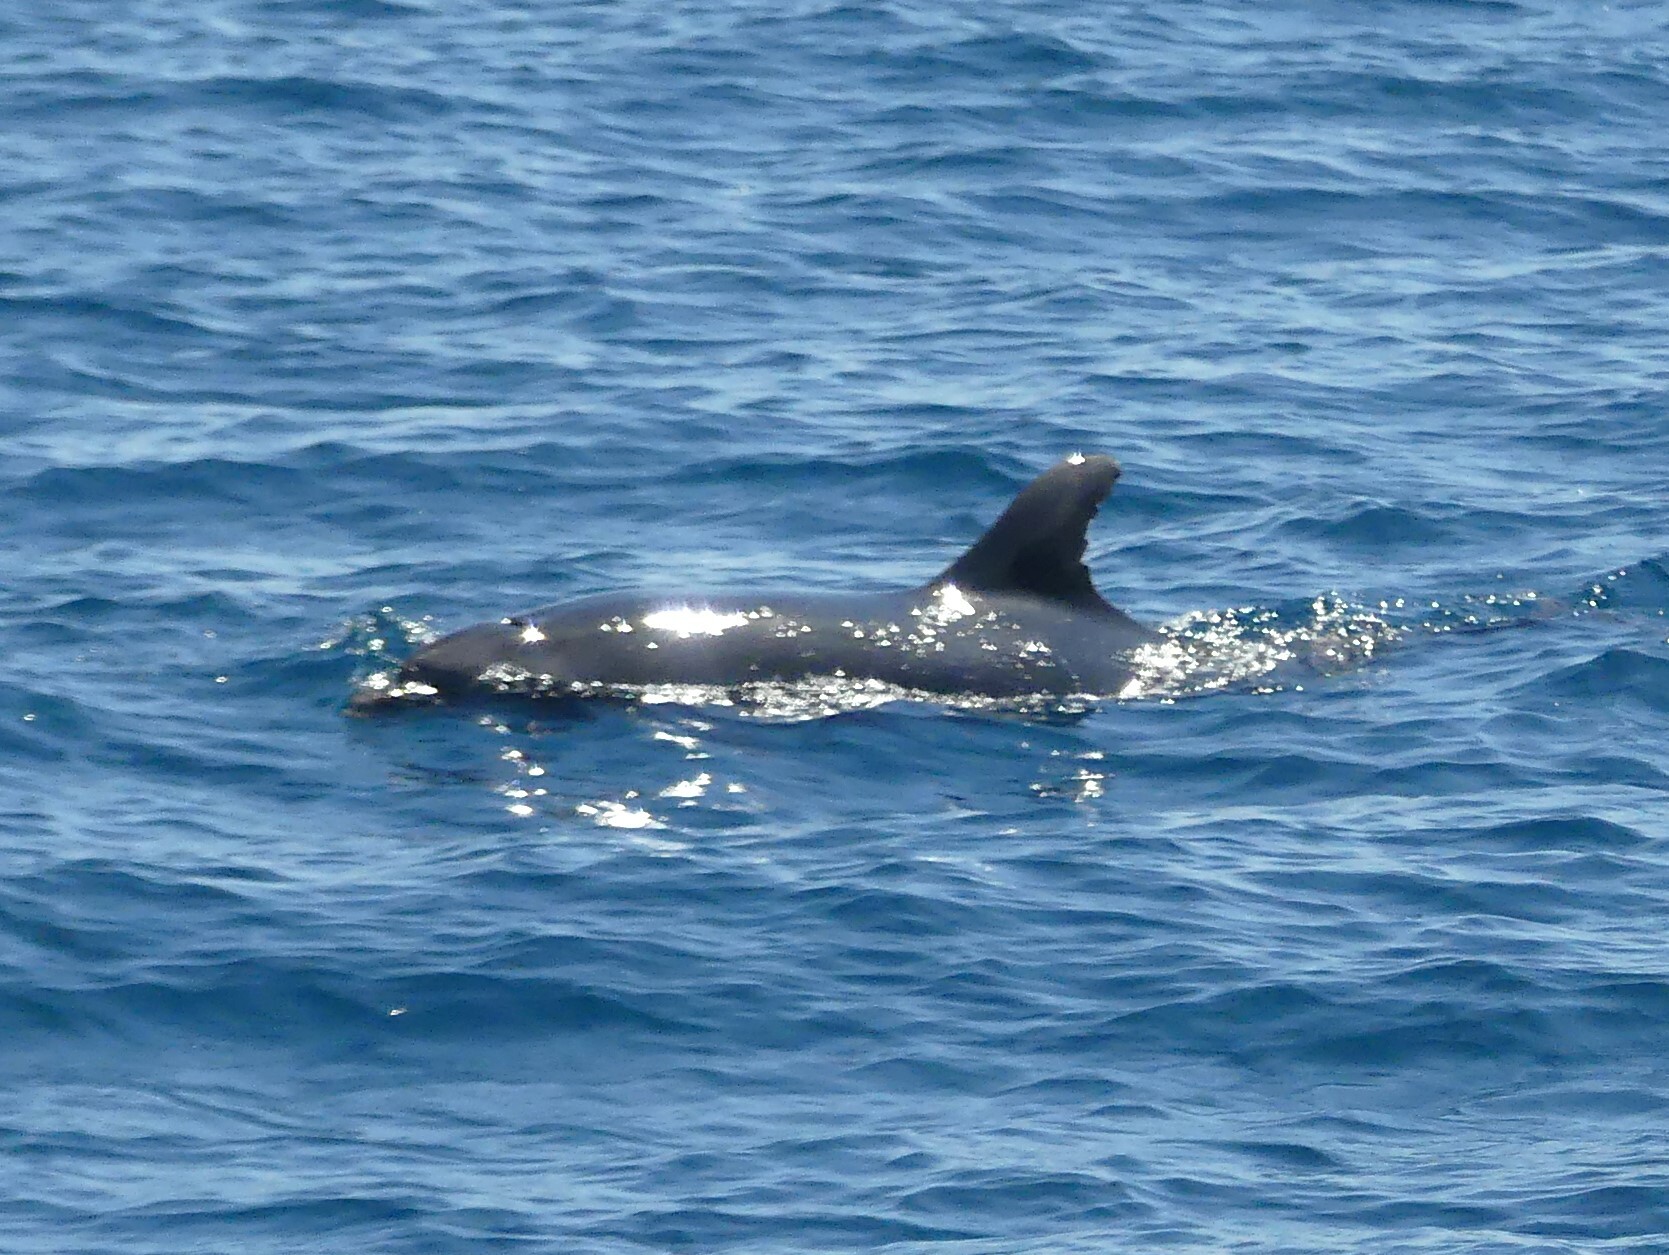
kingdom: Animalia
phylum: Chordata
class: Mammalia
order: Cetacea
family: Delphinidae
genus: Tursiops
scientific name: Tursiops truncatus
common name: Bottlenose dolphin
